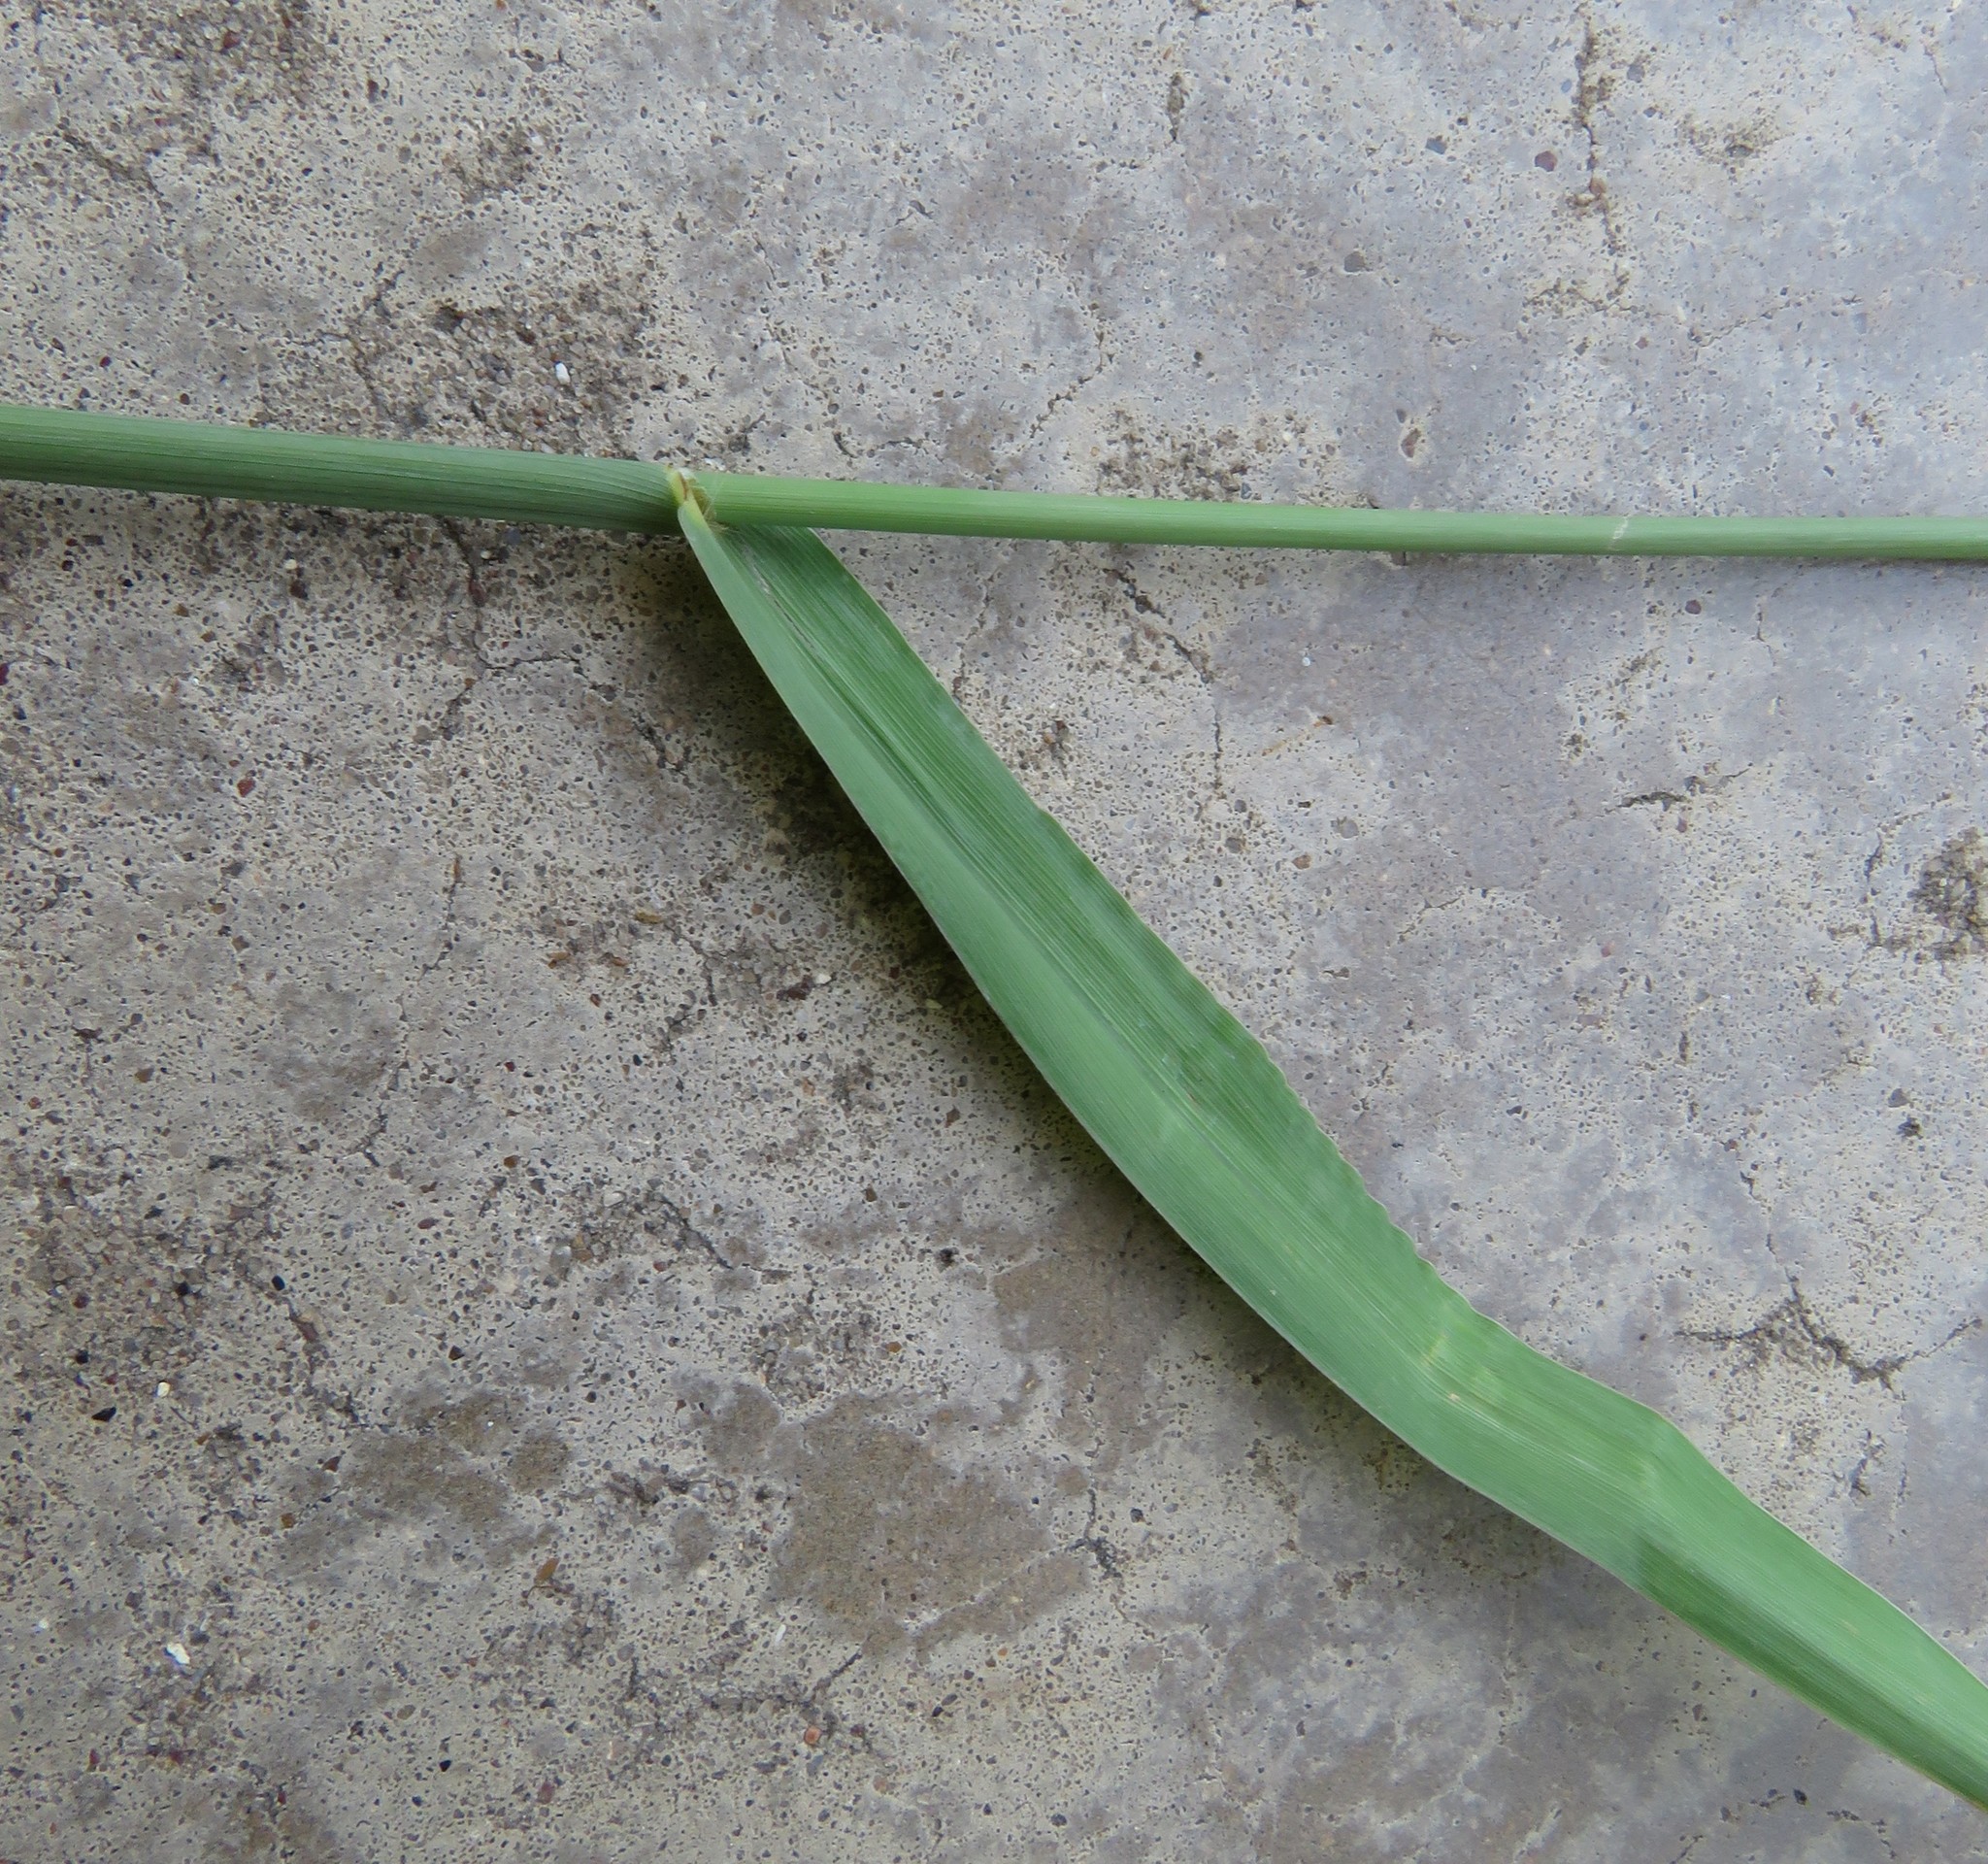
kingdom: Plantae
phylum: Tracheophyta
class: Liliopsida
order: Poales
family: Poaceae
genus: Paspalum
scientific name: Paspalum dilatatum
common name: Dallisgrass
